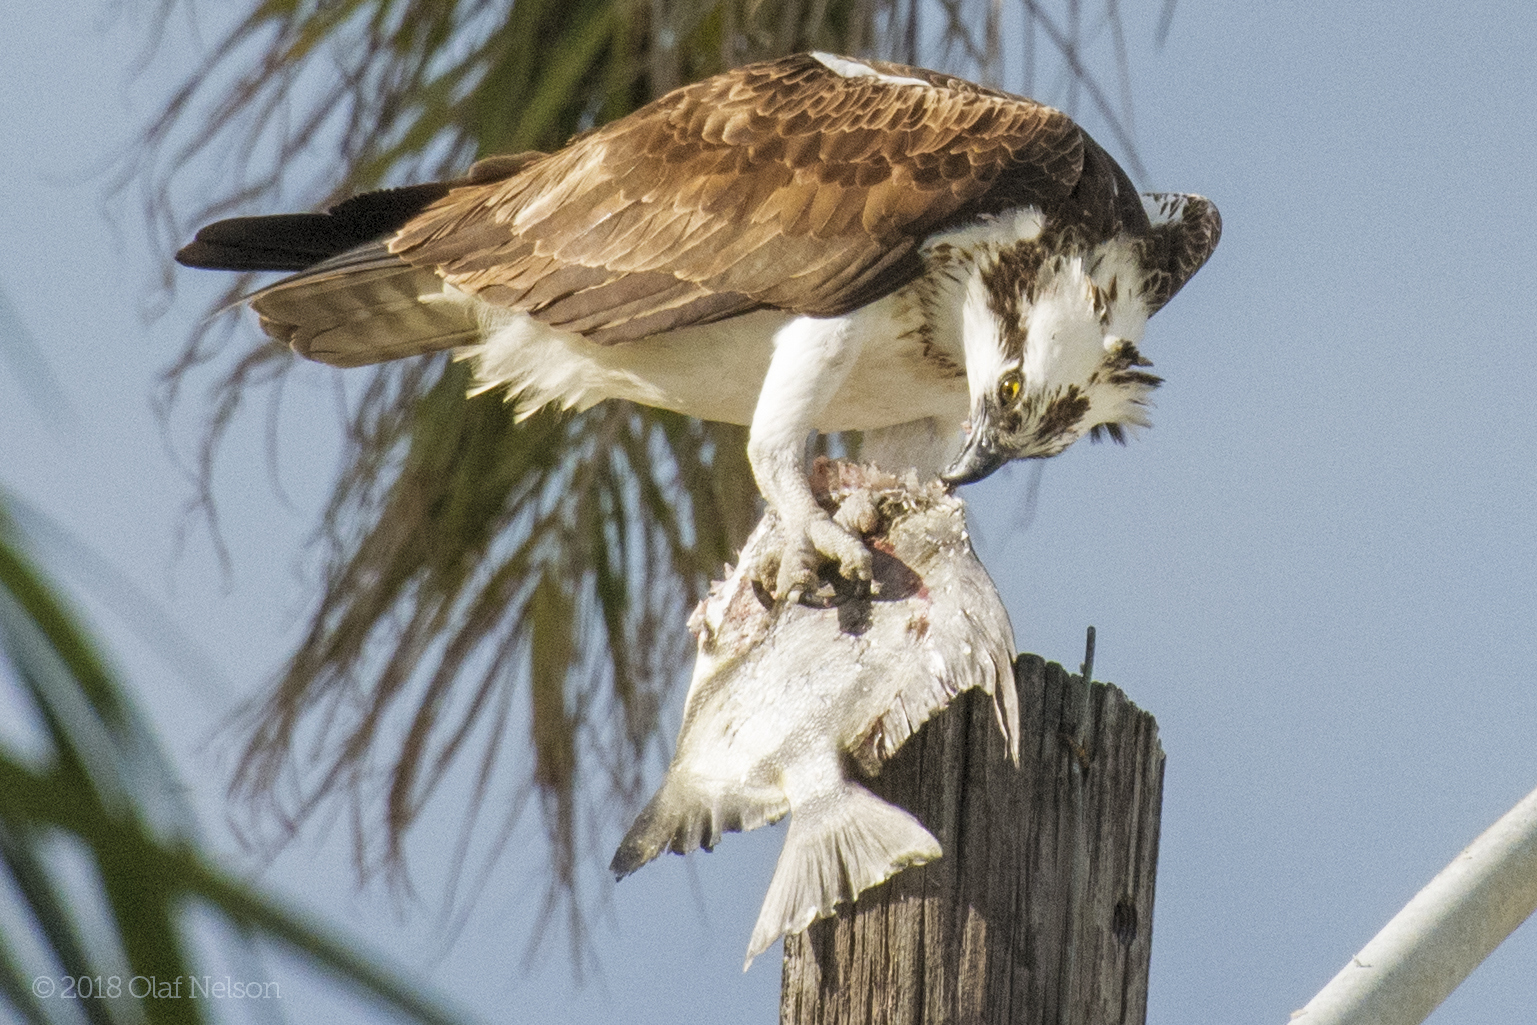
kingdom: Animalia
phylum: Chordata
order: Perciformes
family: Ephippidae
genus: Chaetodipterus
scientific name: Chaetodipterus faber
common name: Ocean cobbler
